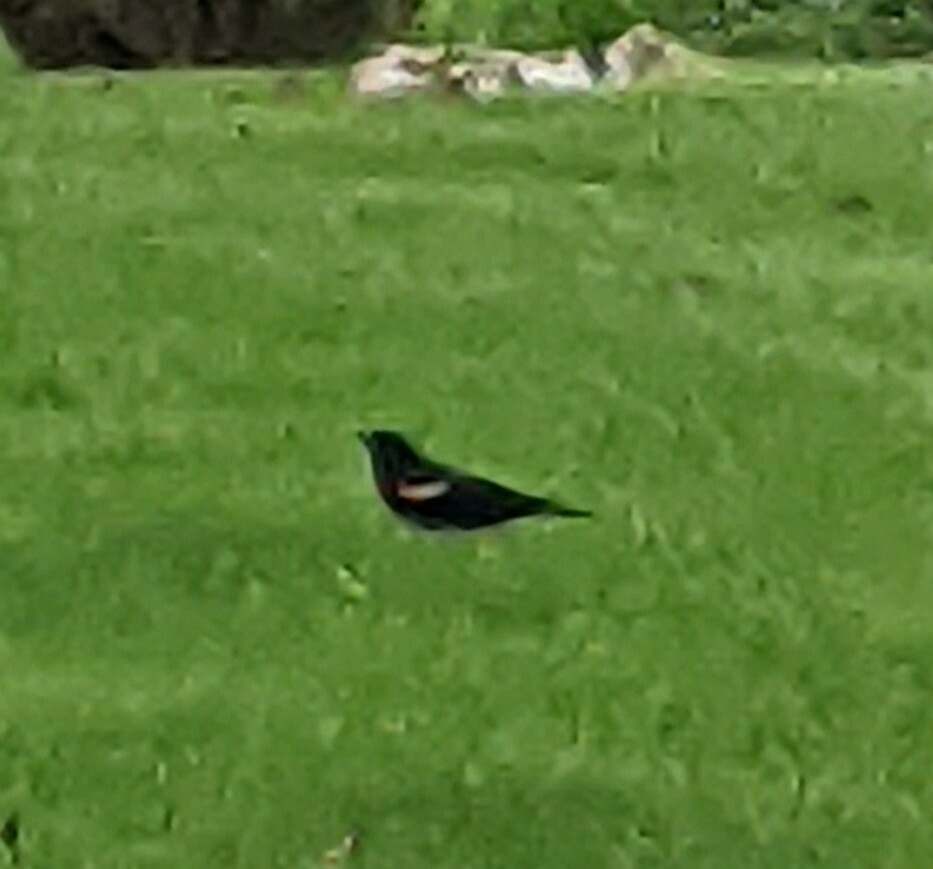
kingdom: Animalia
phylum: Chordata
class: Aves
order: Passeriformes
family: Icteridae
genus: Agelaius
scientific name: Agelaius phoeniceus
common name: Red-winged blackbird
